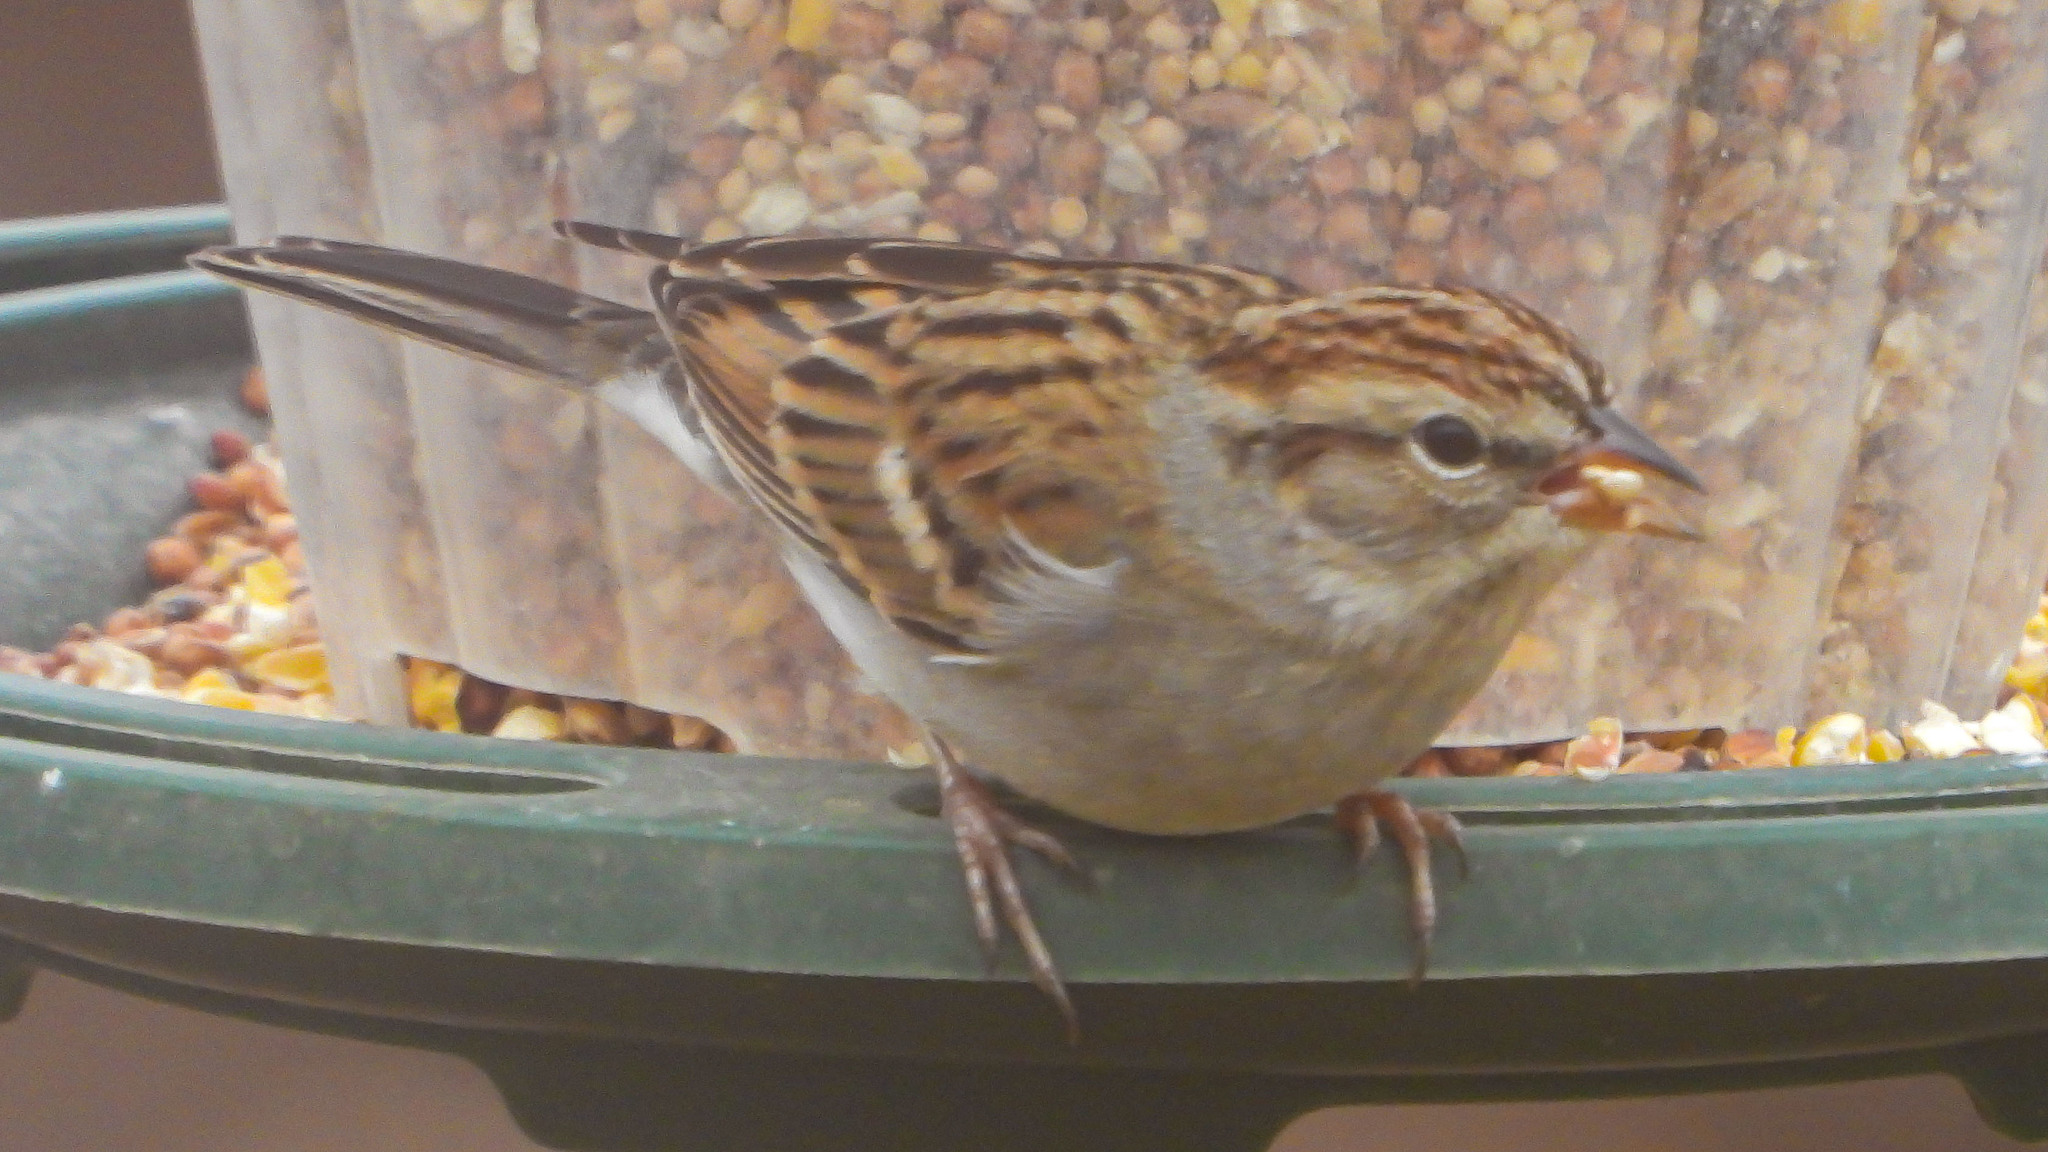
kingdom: Animalia
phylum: Chordata
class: Aves
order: Passeriformes
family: Passerellidae
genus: Spizella
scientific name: Spizella passerina
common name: Chipping sparrow
